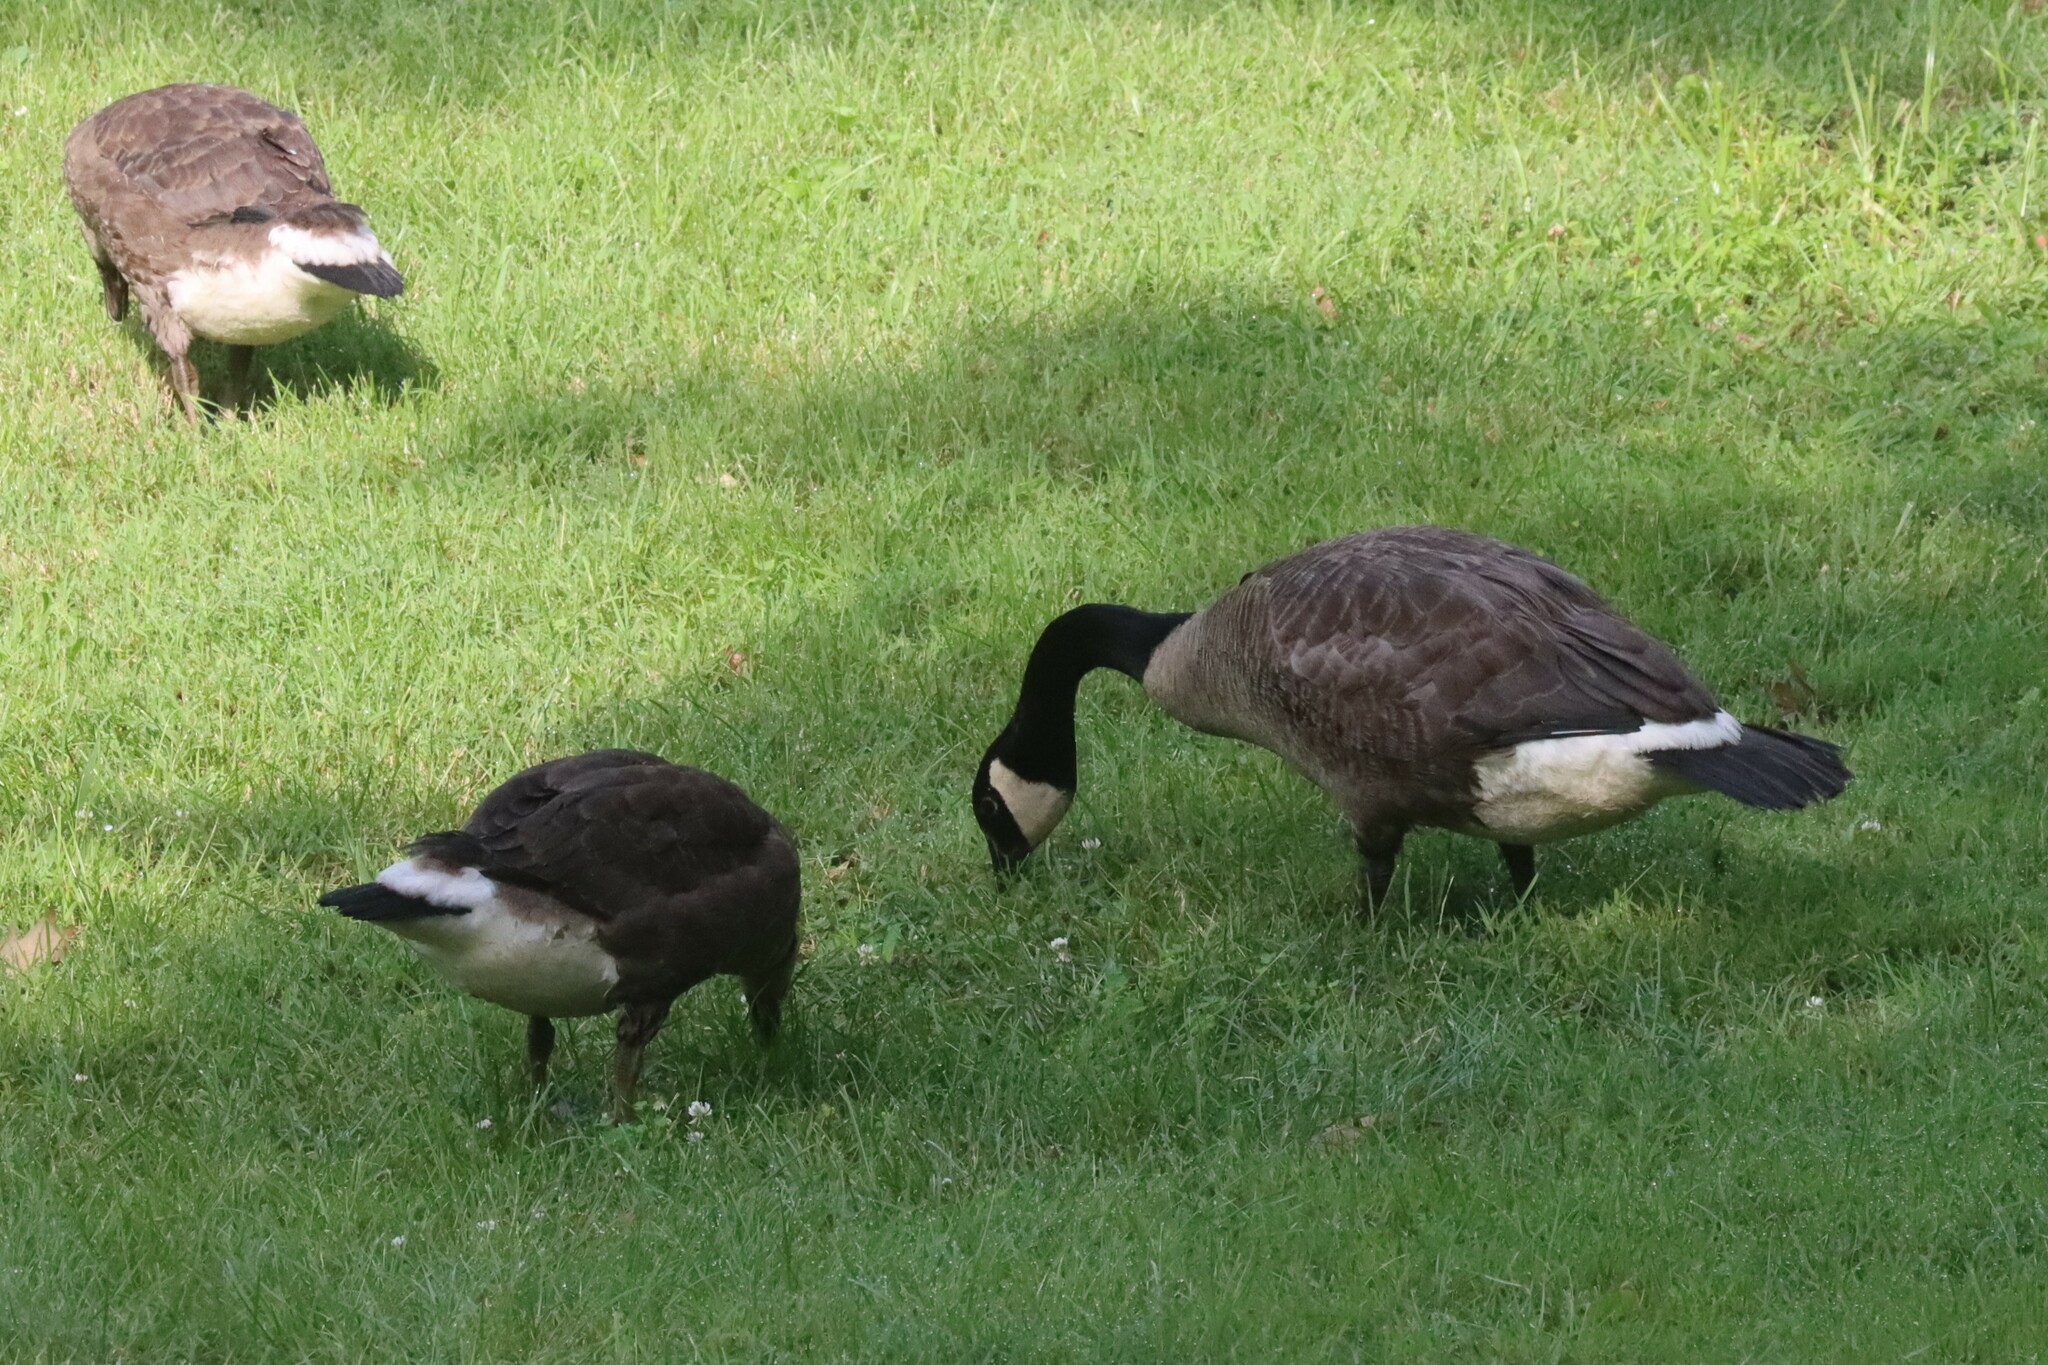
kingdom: Animalia
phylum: Chordata
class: Aves
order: Anseriformes
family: Anatidae
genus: Branta
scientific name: Branta canadensis
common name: Canada goose
